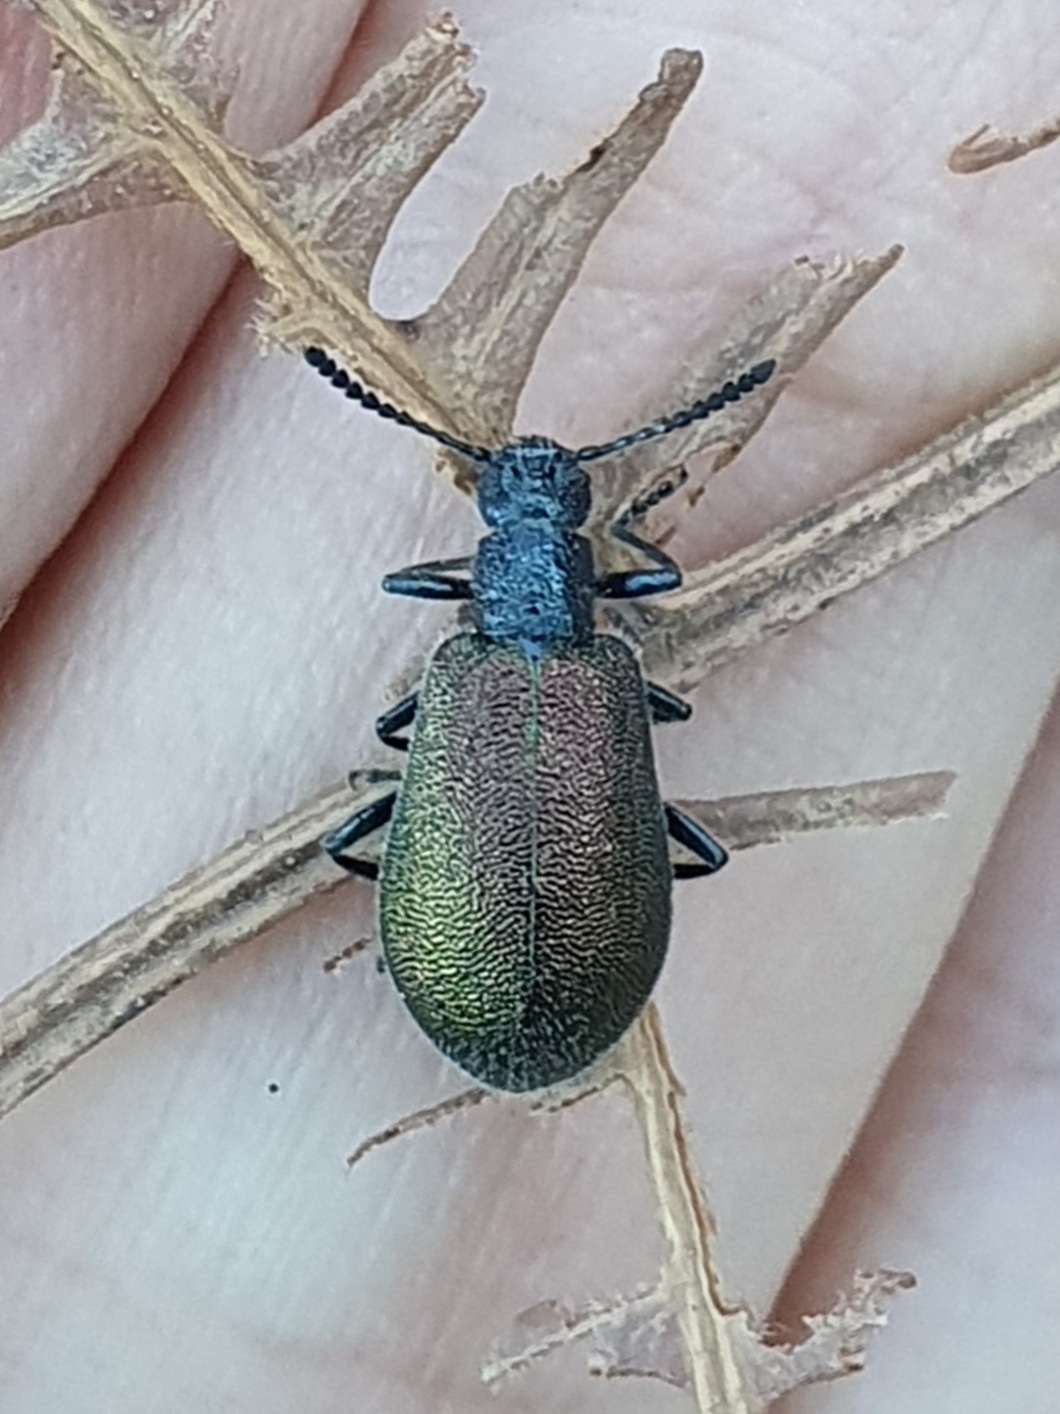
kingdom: Animalia
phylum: Arthropoda
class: Insecta
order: Coleoptera
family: Tenebrionidae
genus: Chrysolagria
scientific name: Chrysolagria
